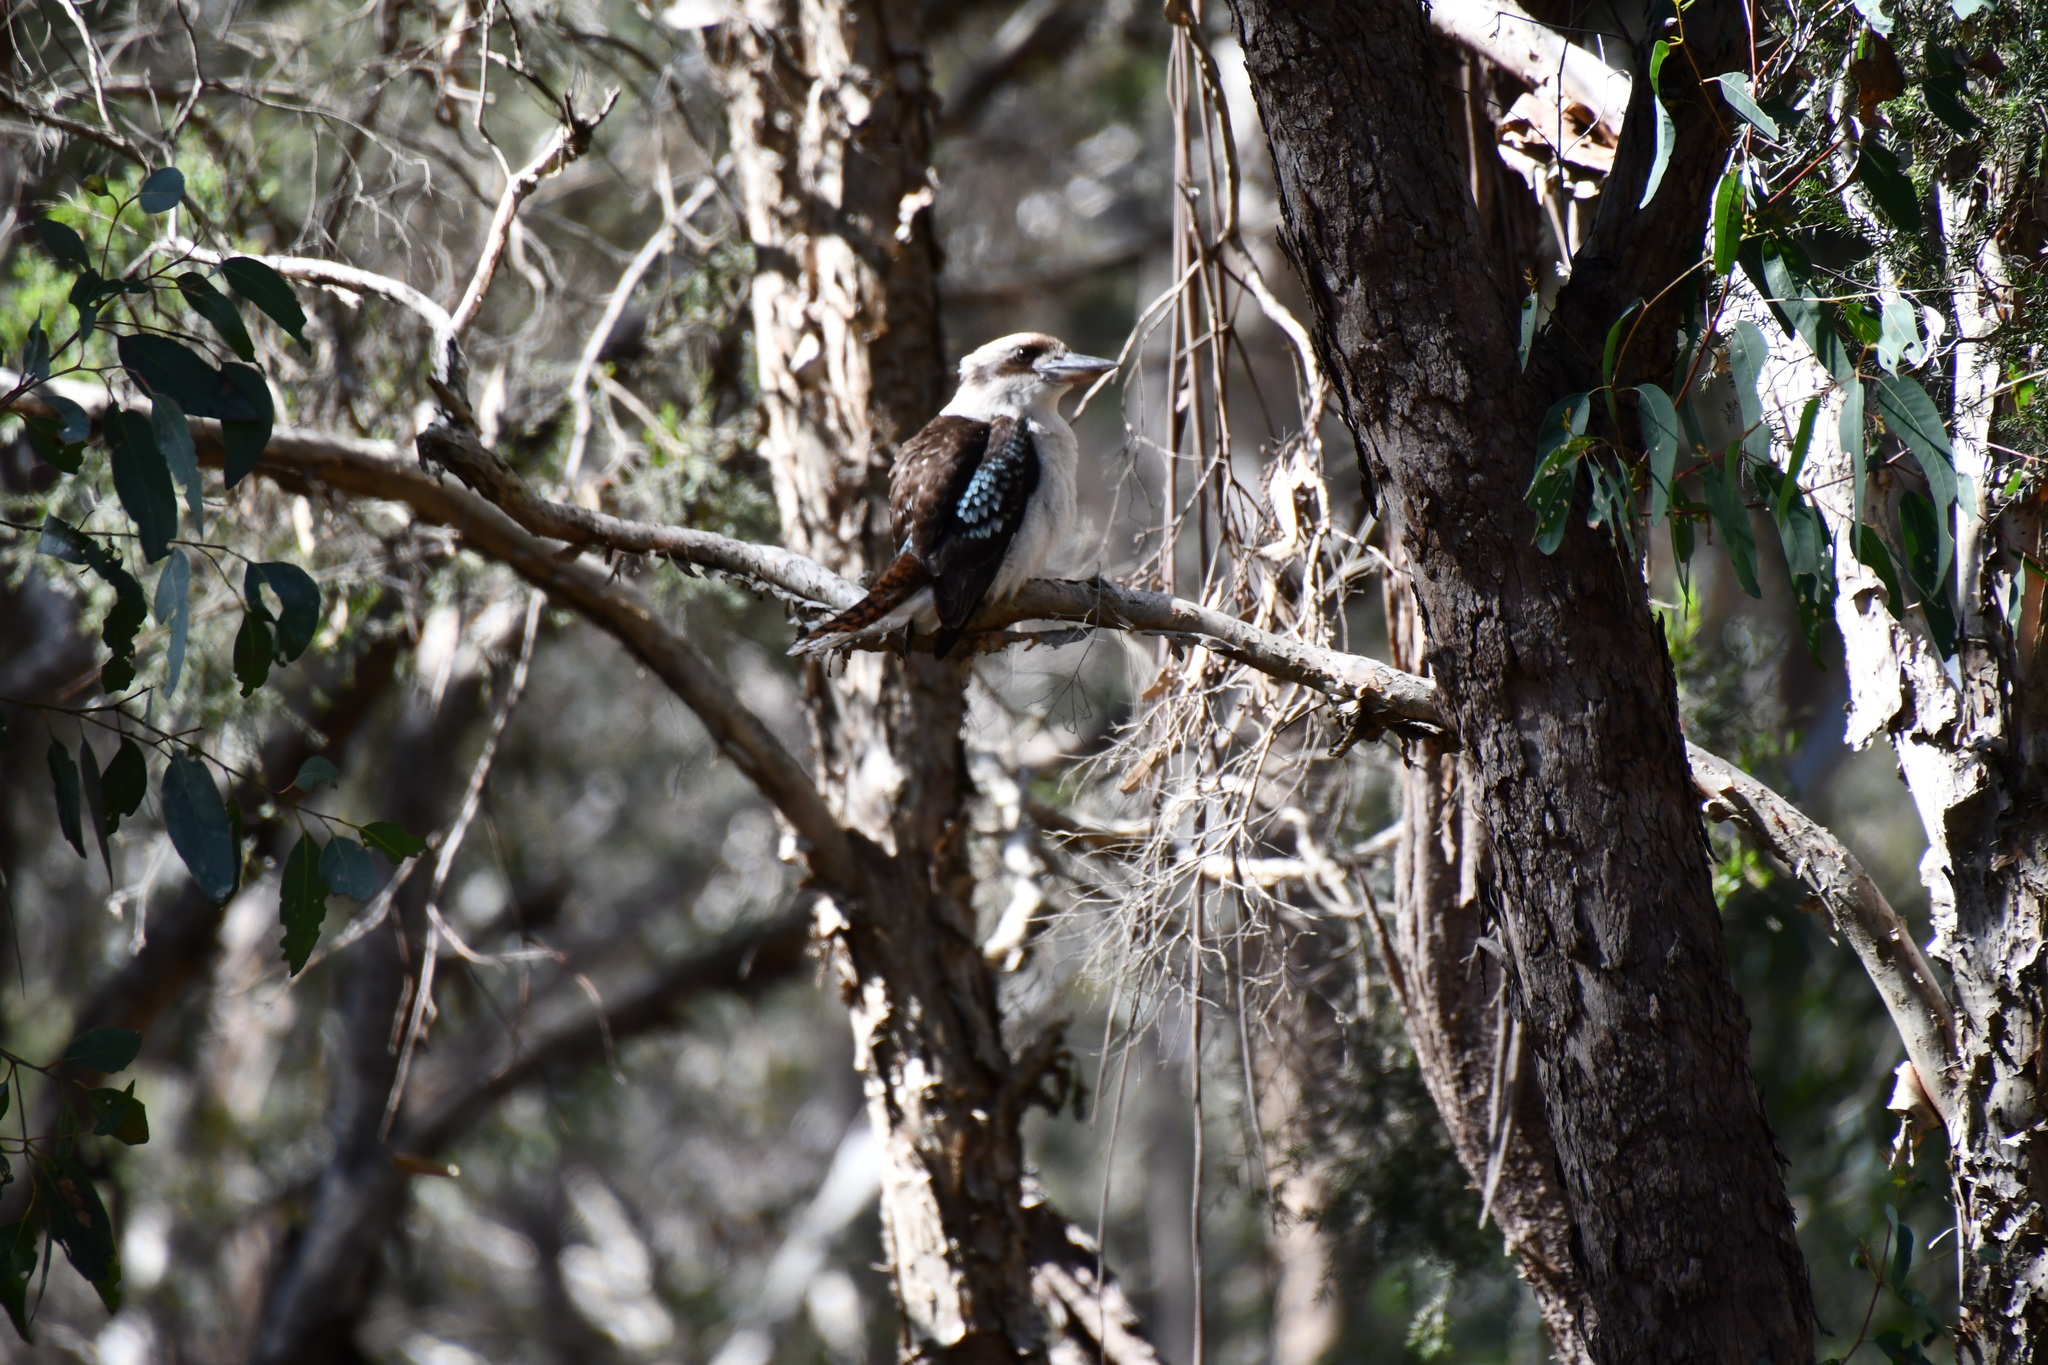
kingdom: Animalia
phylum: Chordata
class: Aves
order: Coraciiformes
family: Alcedinidae
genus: Dacelo
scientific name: Dacelo novaeguineae
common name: Laughing kookaburra
